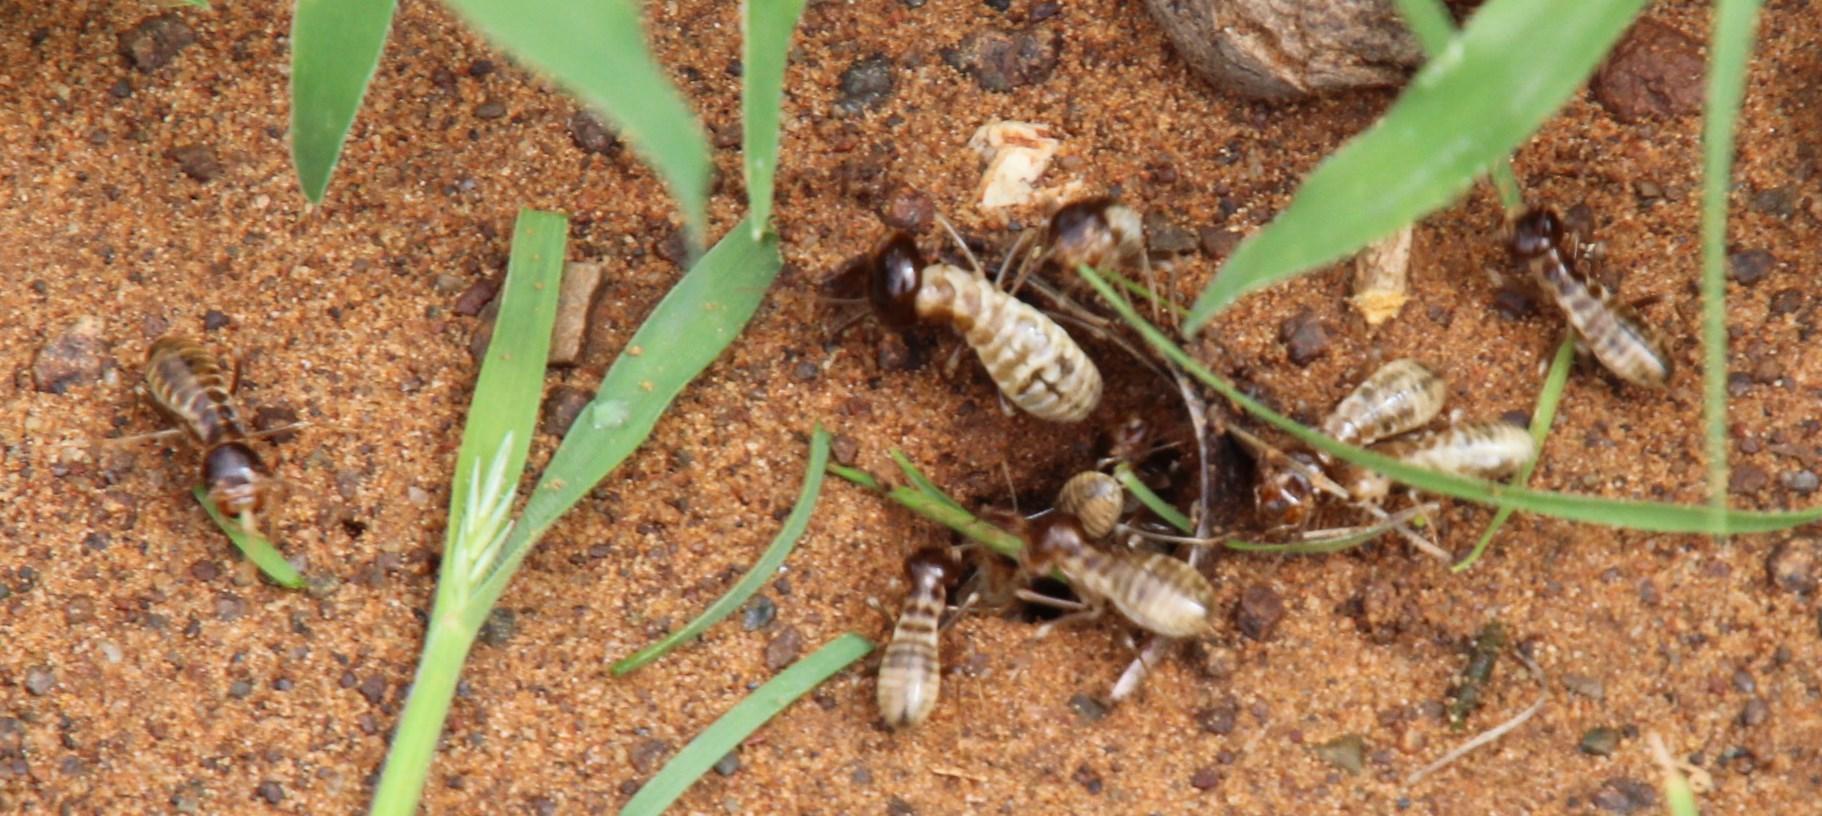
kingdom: Animalia
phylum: Arthropoda
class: Insecta
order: Blattodea
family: Hodotermitidae
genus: Hodotermes
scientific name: Hodotermes mossambicus
